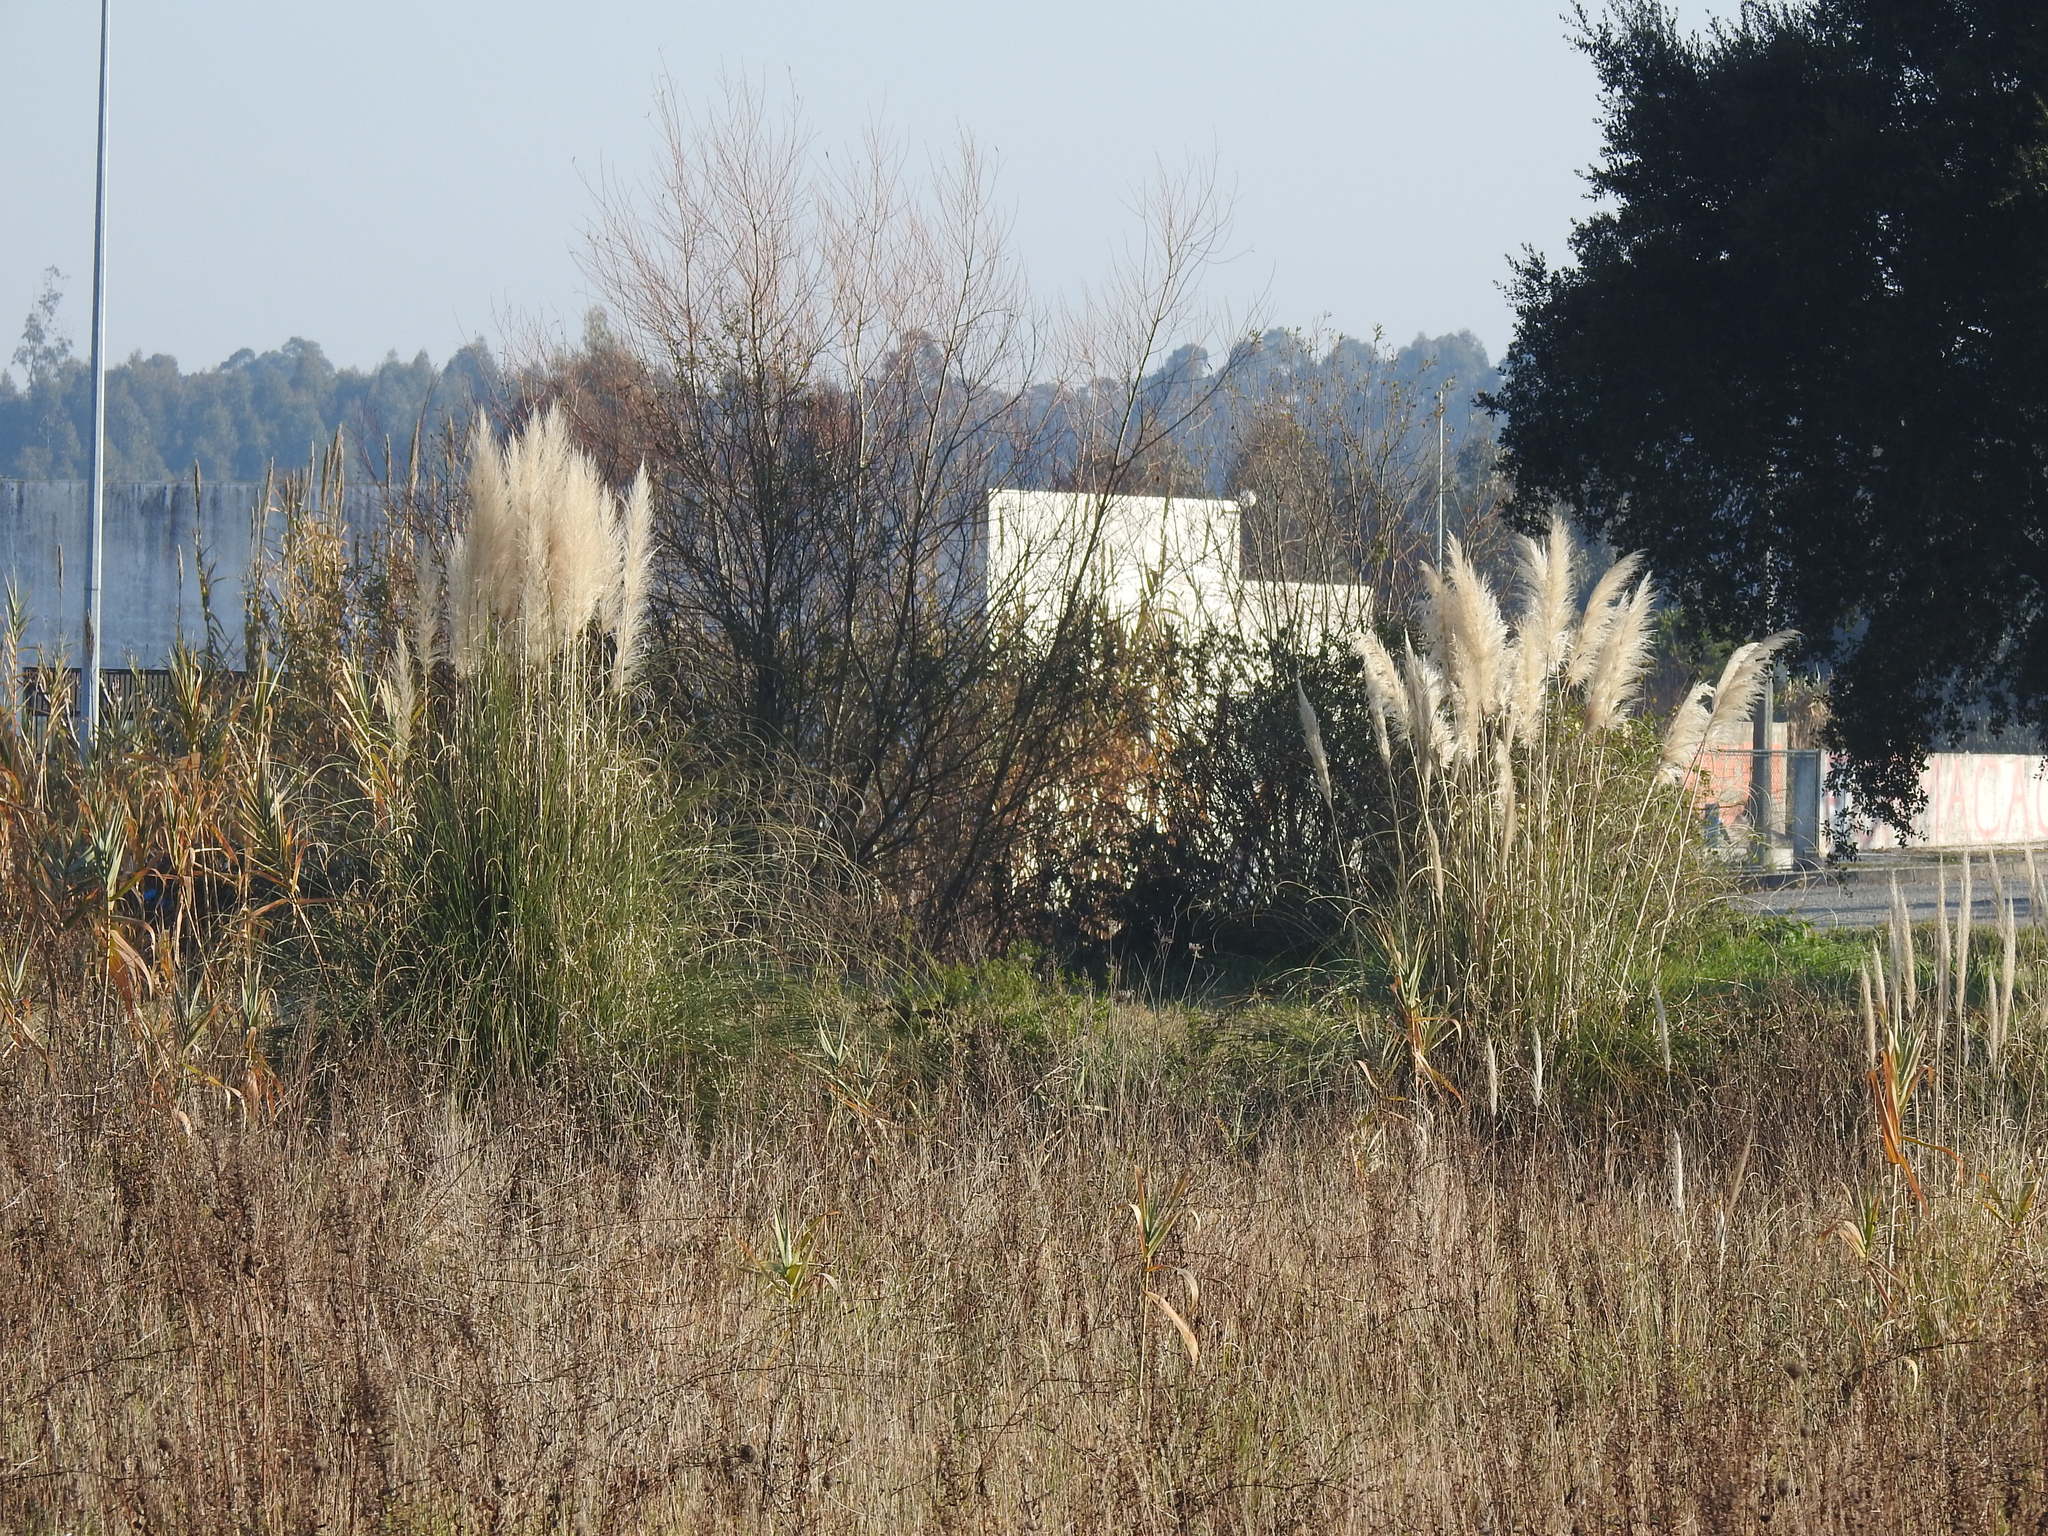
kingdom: Plantae
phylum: Tracheophyta
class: Liliopsida
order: Poales
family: Poaceae
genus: Cortaderia
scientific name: Cortaderia selloana
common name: Uruguayan pampas grass
